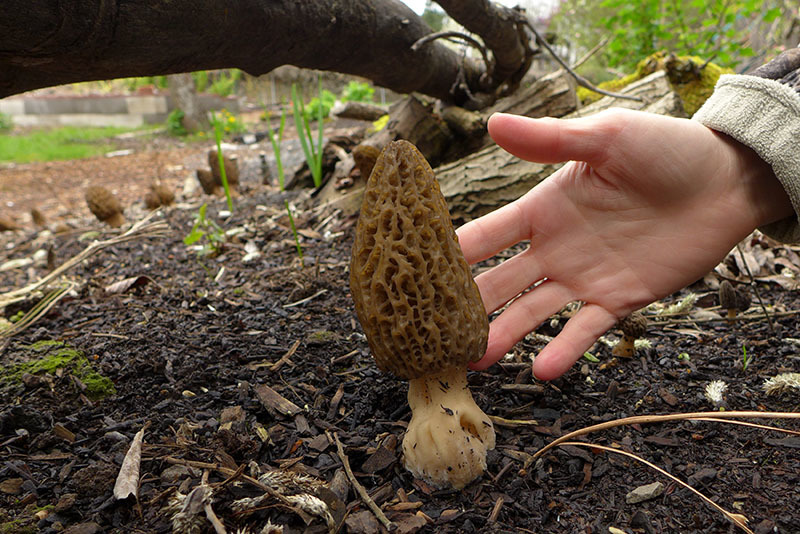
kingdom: Fungi
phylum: Ascomycota
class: Pezizomycetes
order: Pezizales
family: Morchellaceae
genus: Morchella
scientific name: Morchella importuna
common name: Landscaping black morel
